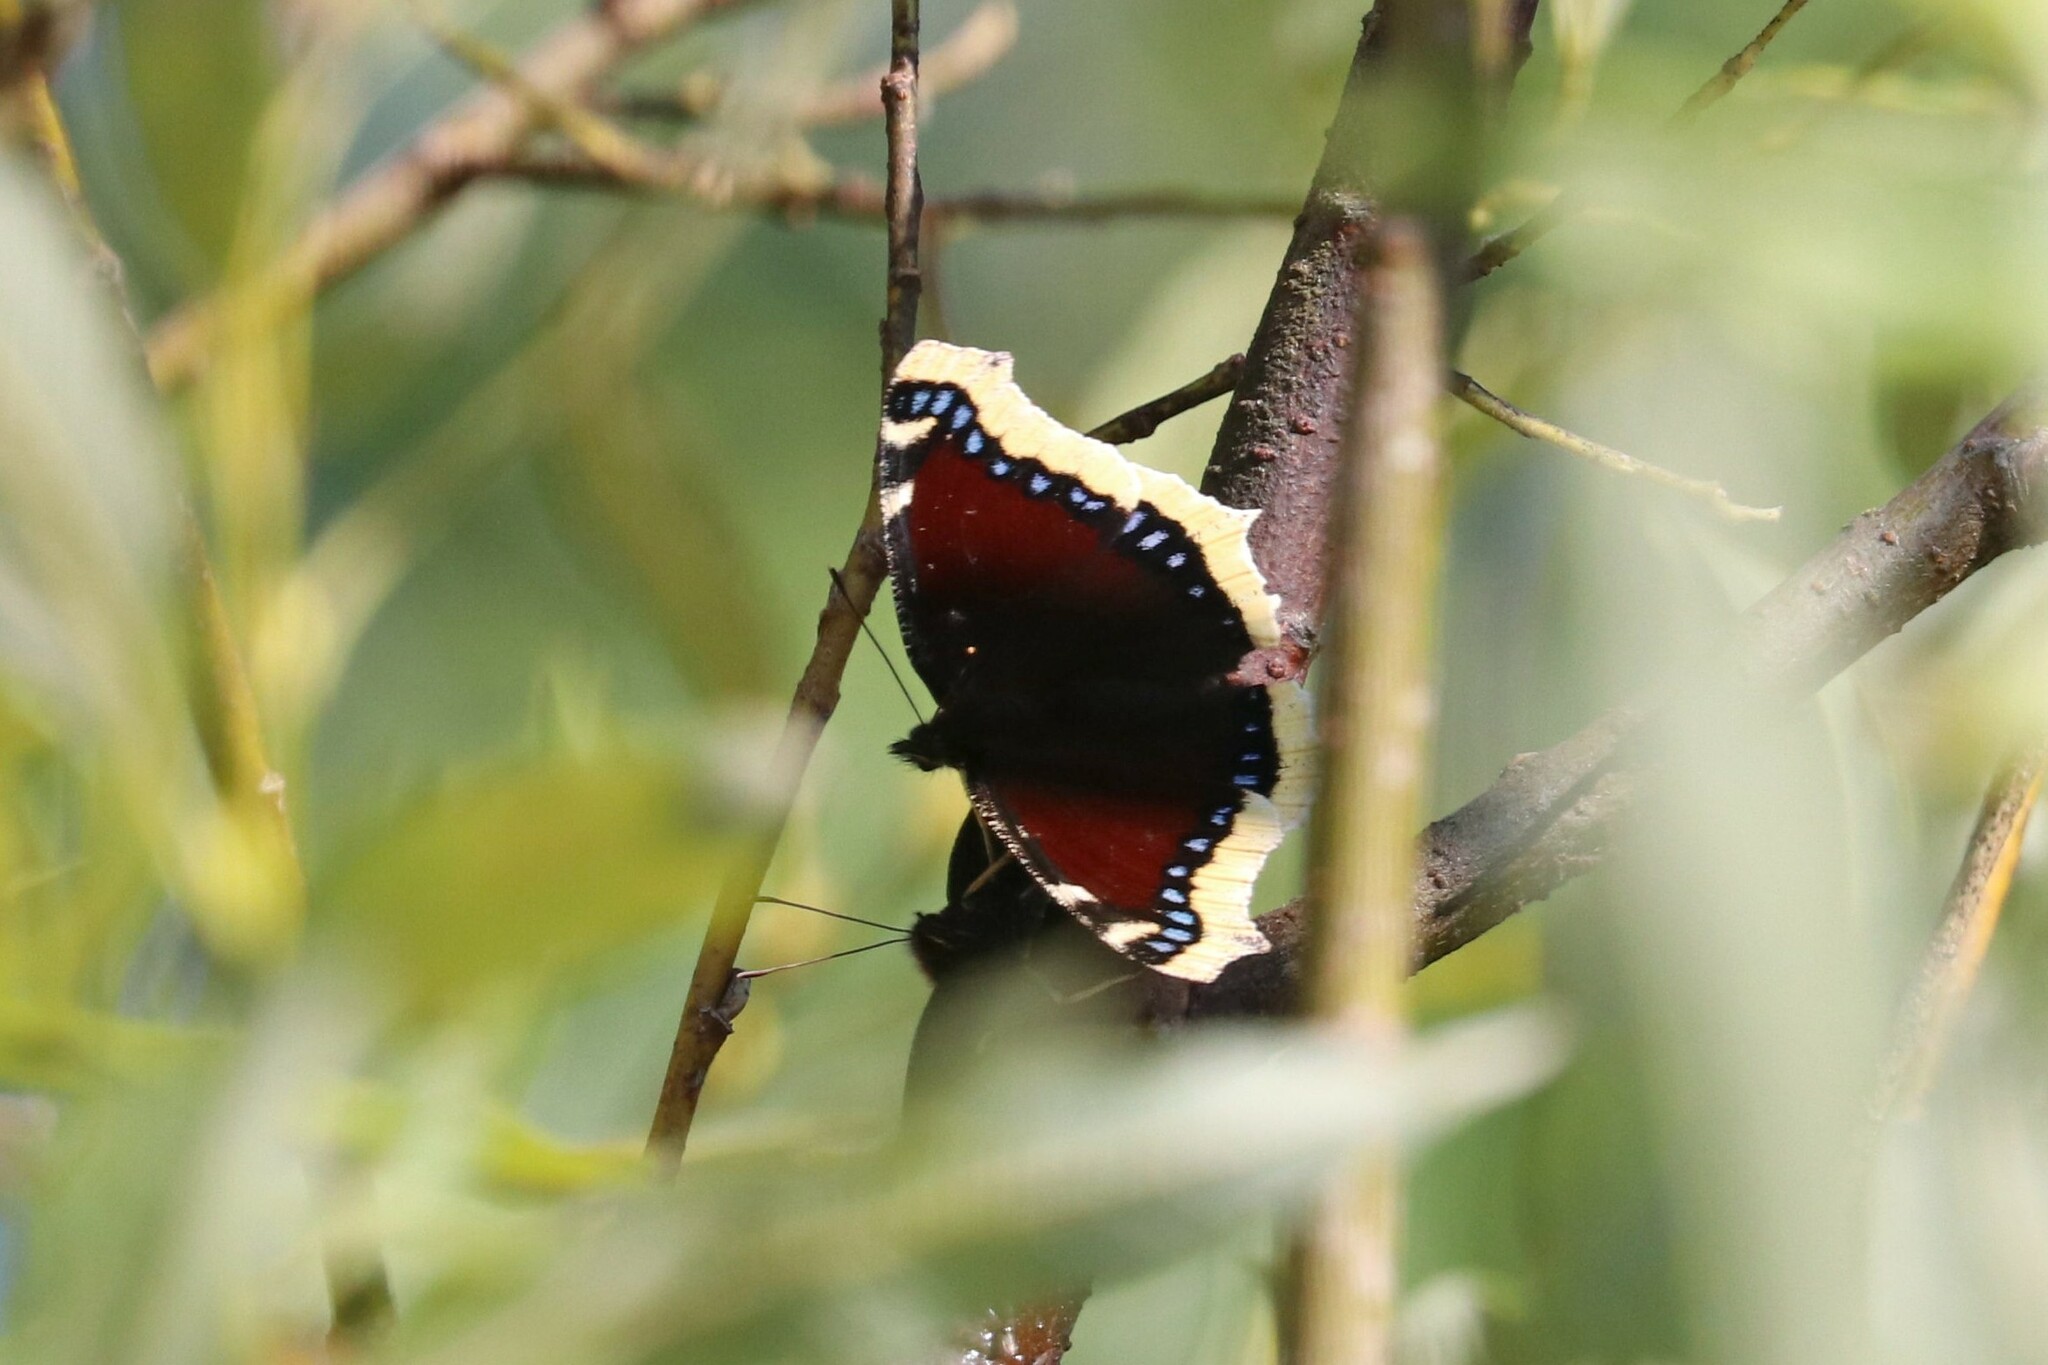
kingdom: Animalia
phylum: Arthropoda
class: Insecta
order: Lepidoptera
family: Nymphalidae
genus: Nymphalis
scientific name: Nymphalis antiopa
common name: Camberwell beauty
